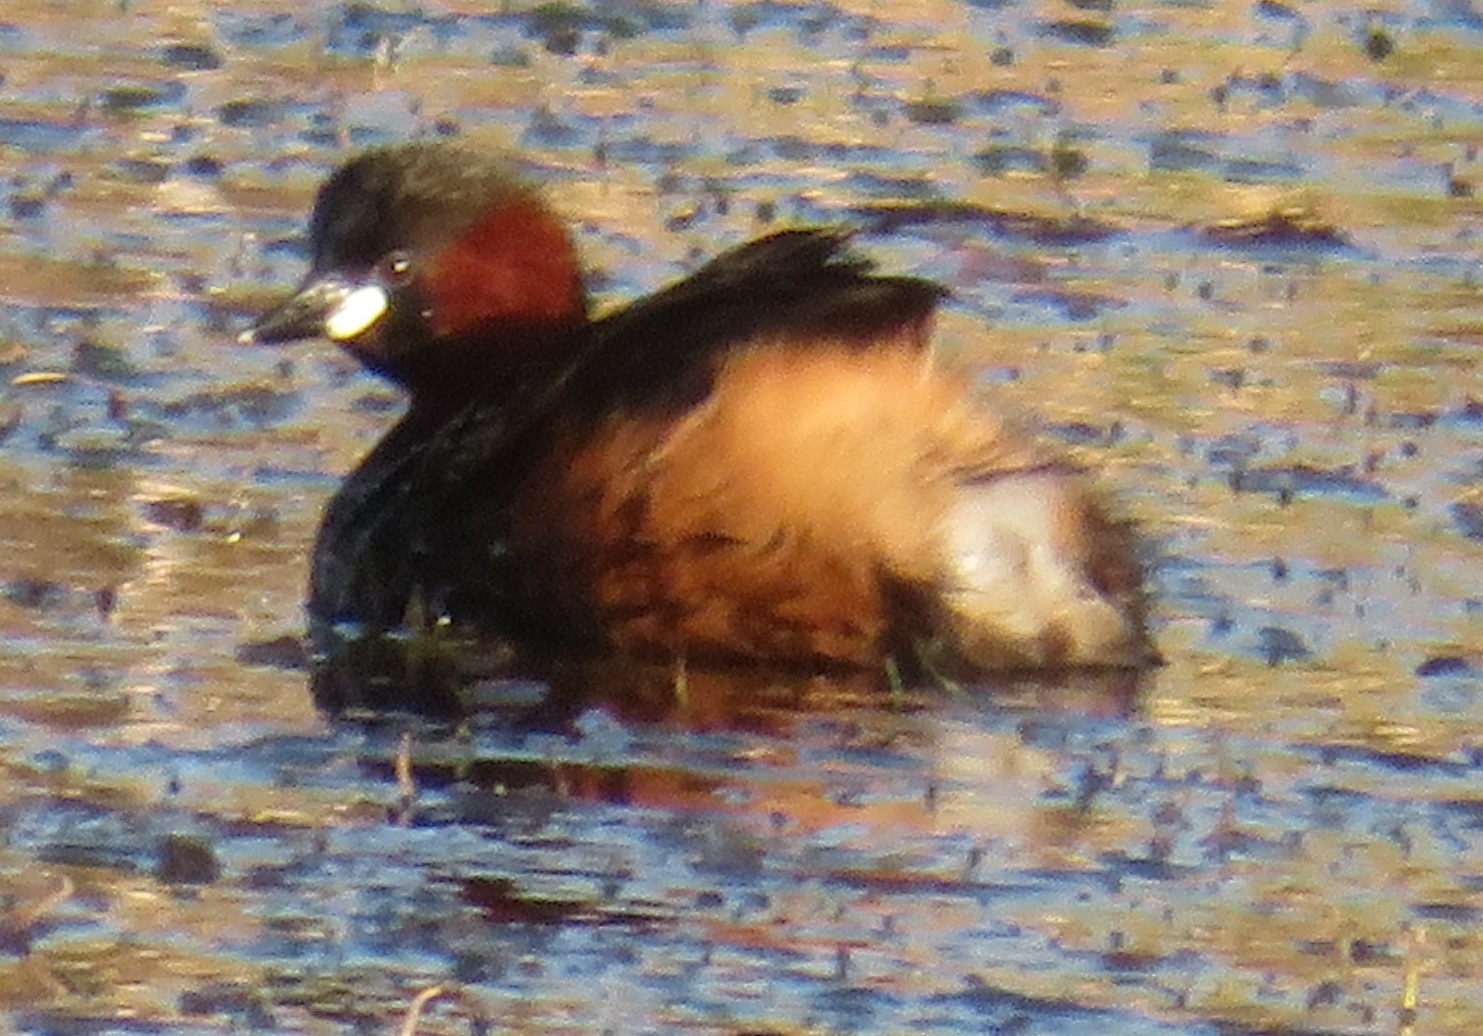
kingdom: Animalia
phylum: Chordata
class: Aves
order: Podicipediformes
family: Podicipedidae
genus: Tachybaptus
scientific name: Tachybaptus ruficollis
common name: Little grebe
